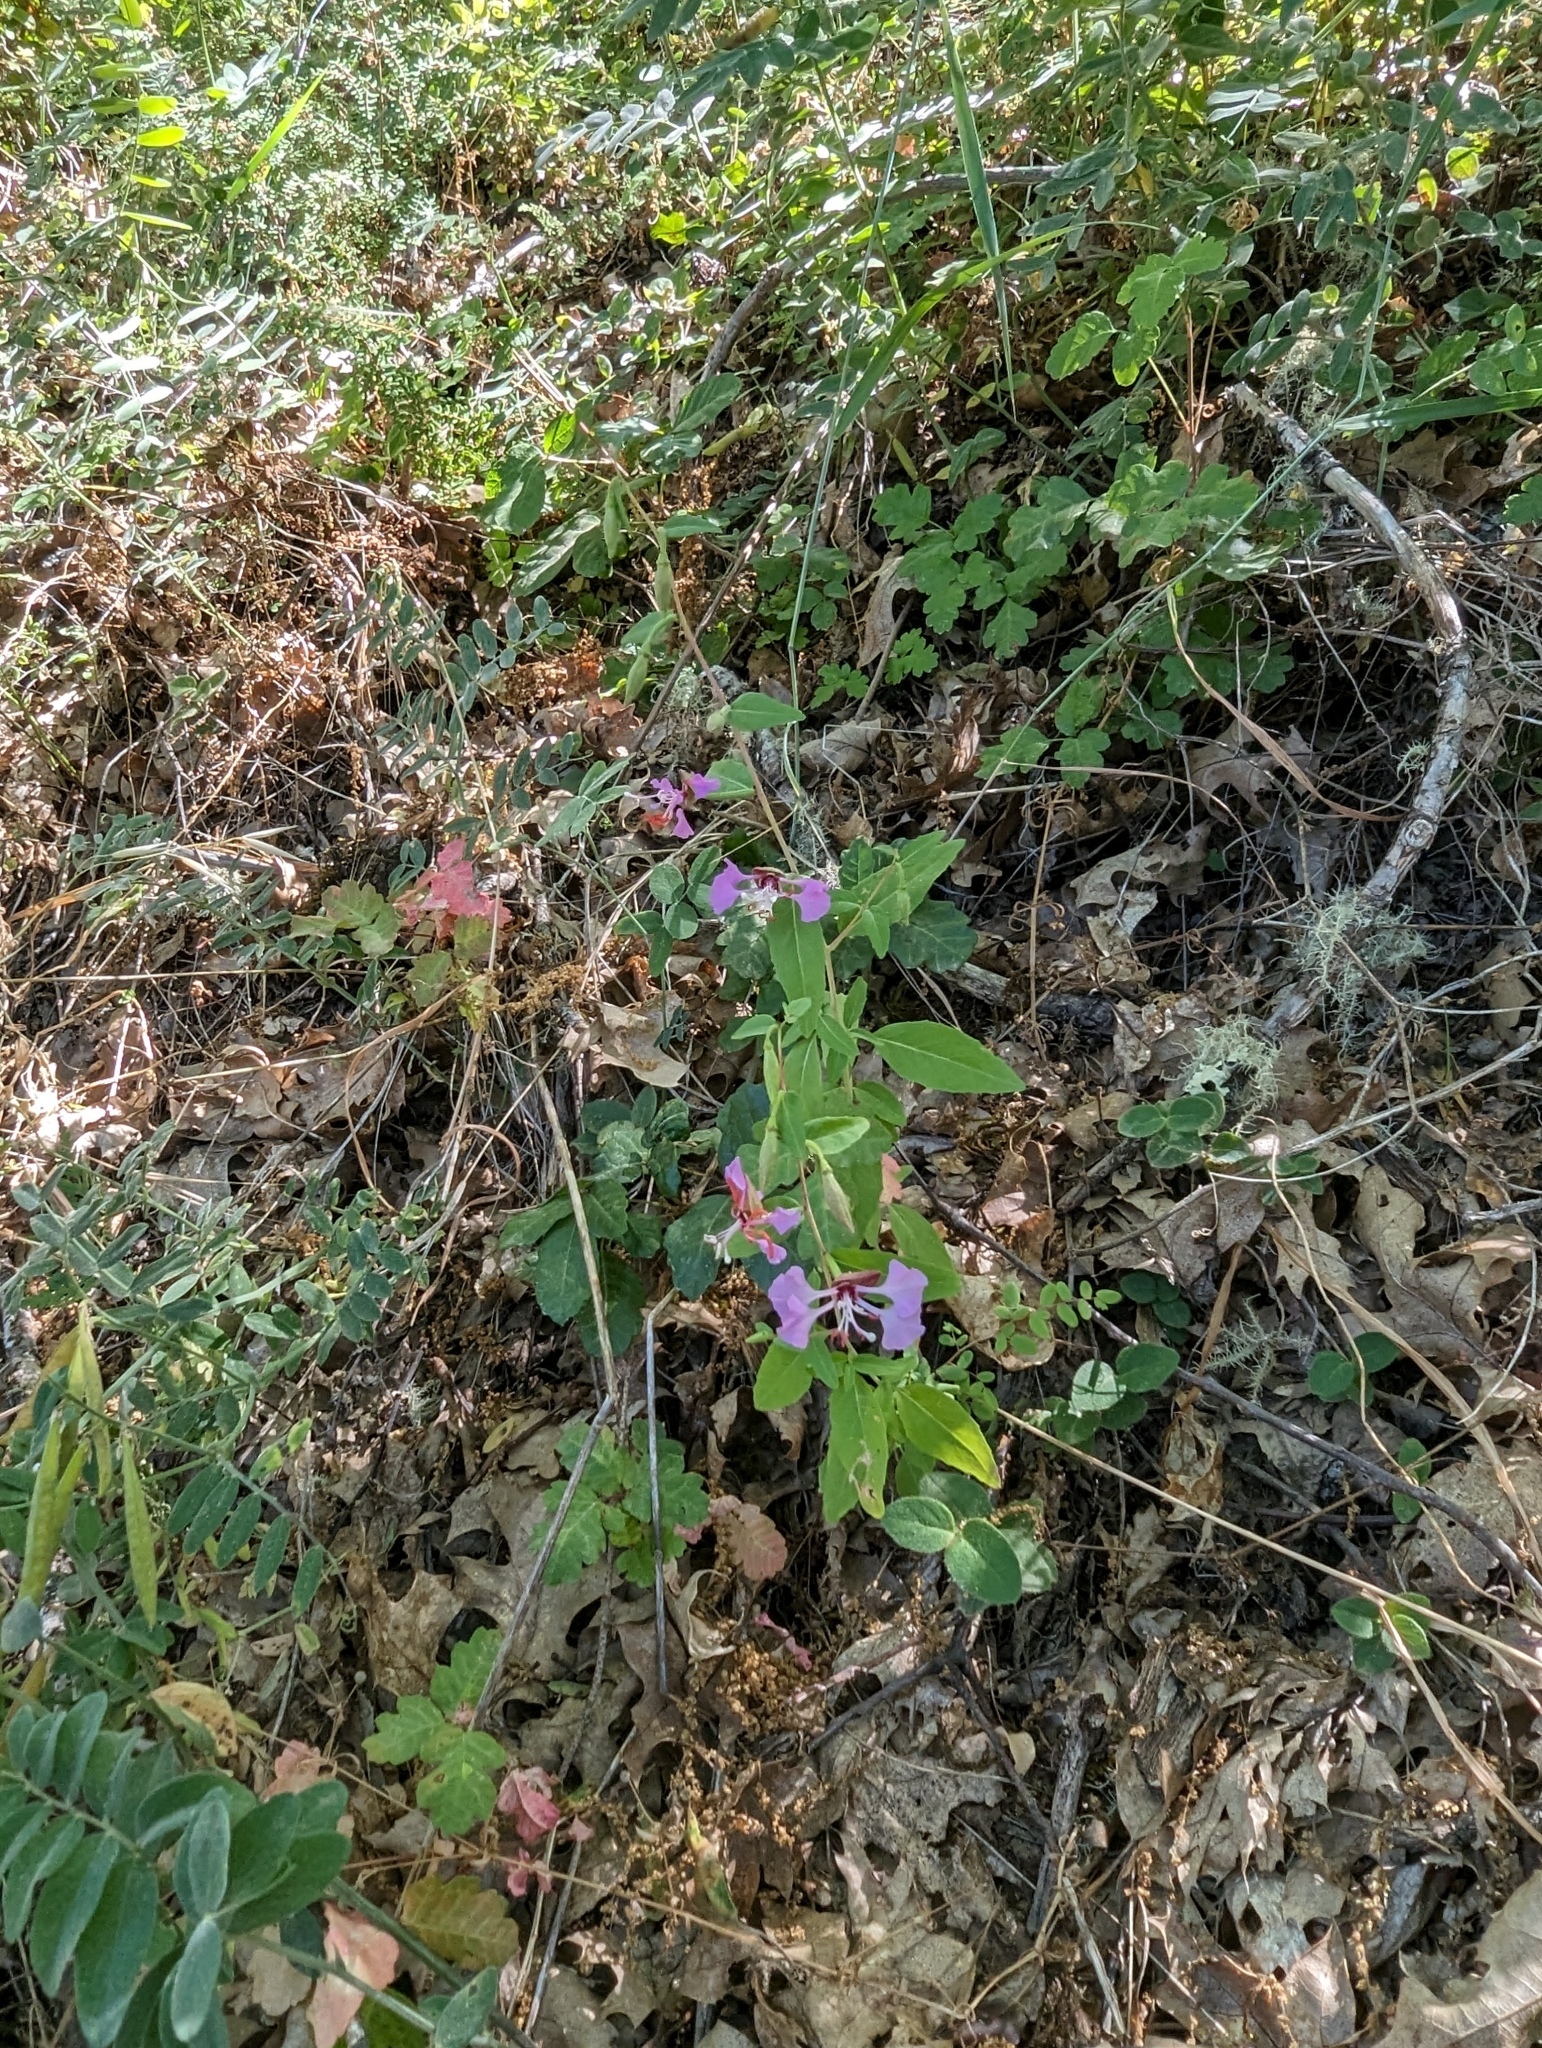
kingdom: Plantae
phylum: Tracheophyta
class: Magnoliopsida
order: Myrtales
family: Onagraceae
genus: Clarkia
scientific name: Clarkia unguiculata
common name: Clarkia
